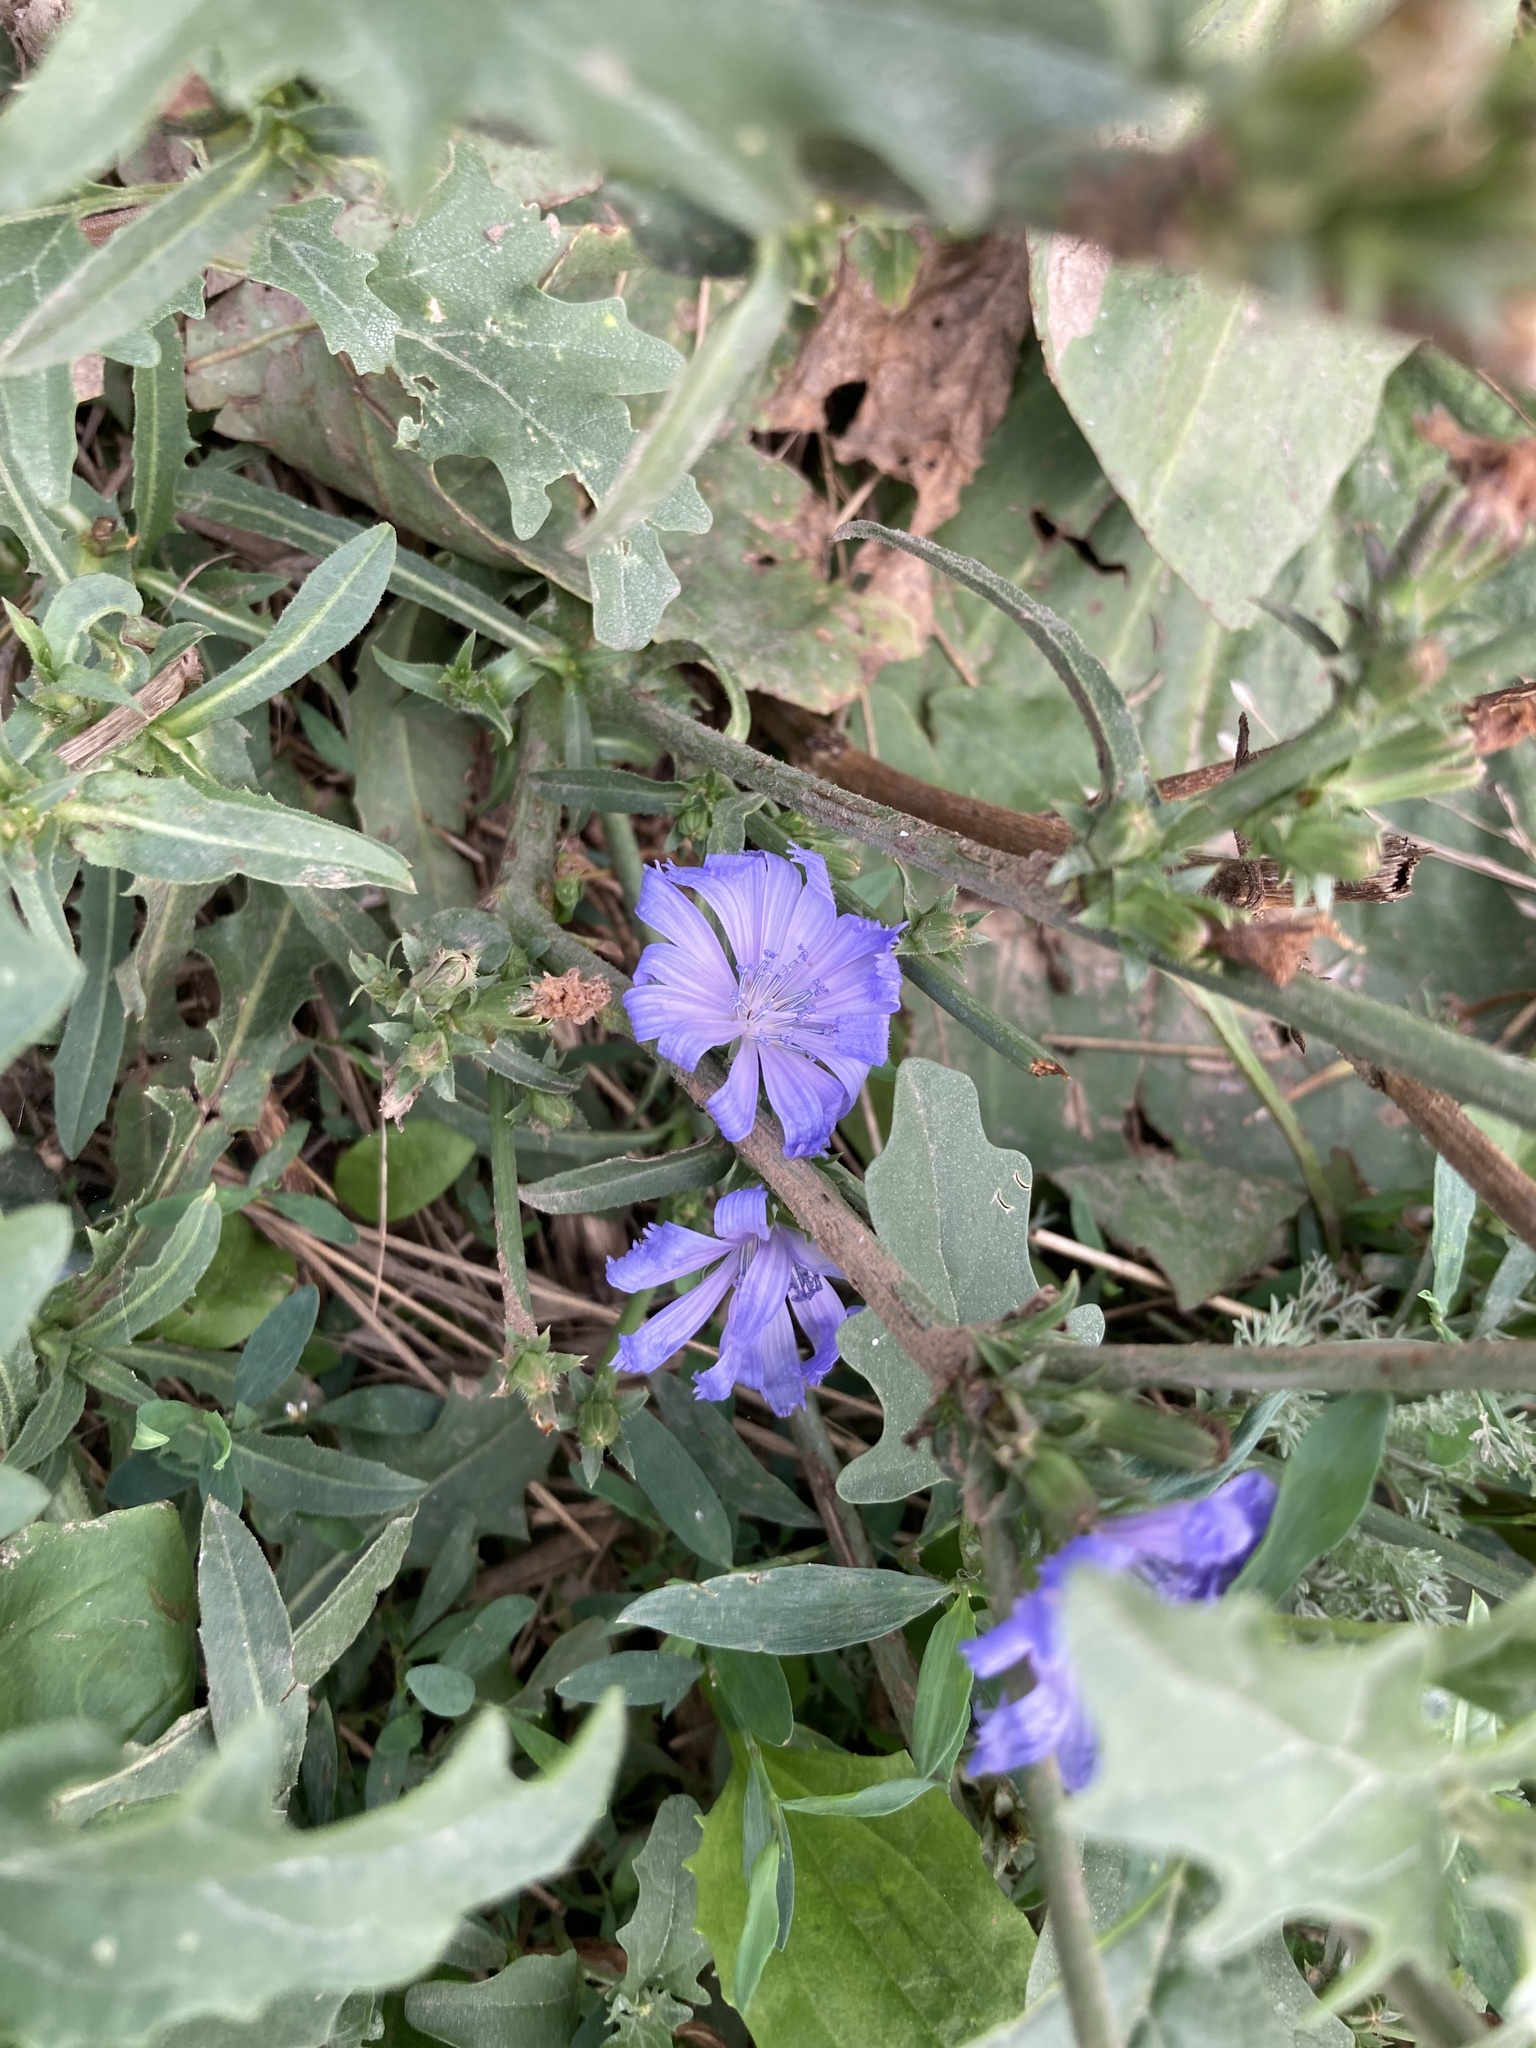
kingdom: Plantae
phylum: Tracheophyta
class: Magnoliopsida
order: Asterales
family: Asteraceae
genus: Cichorium
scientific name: Cichorium intybus
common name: Chicory
